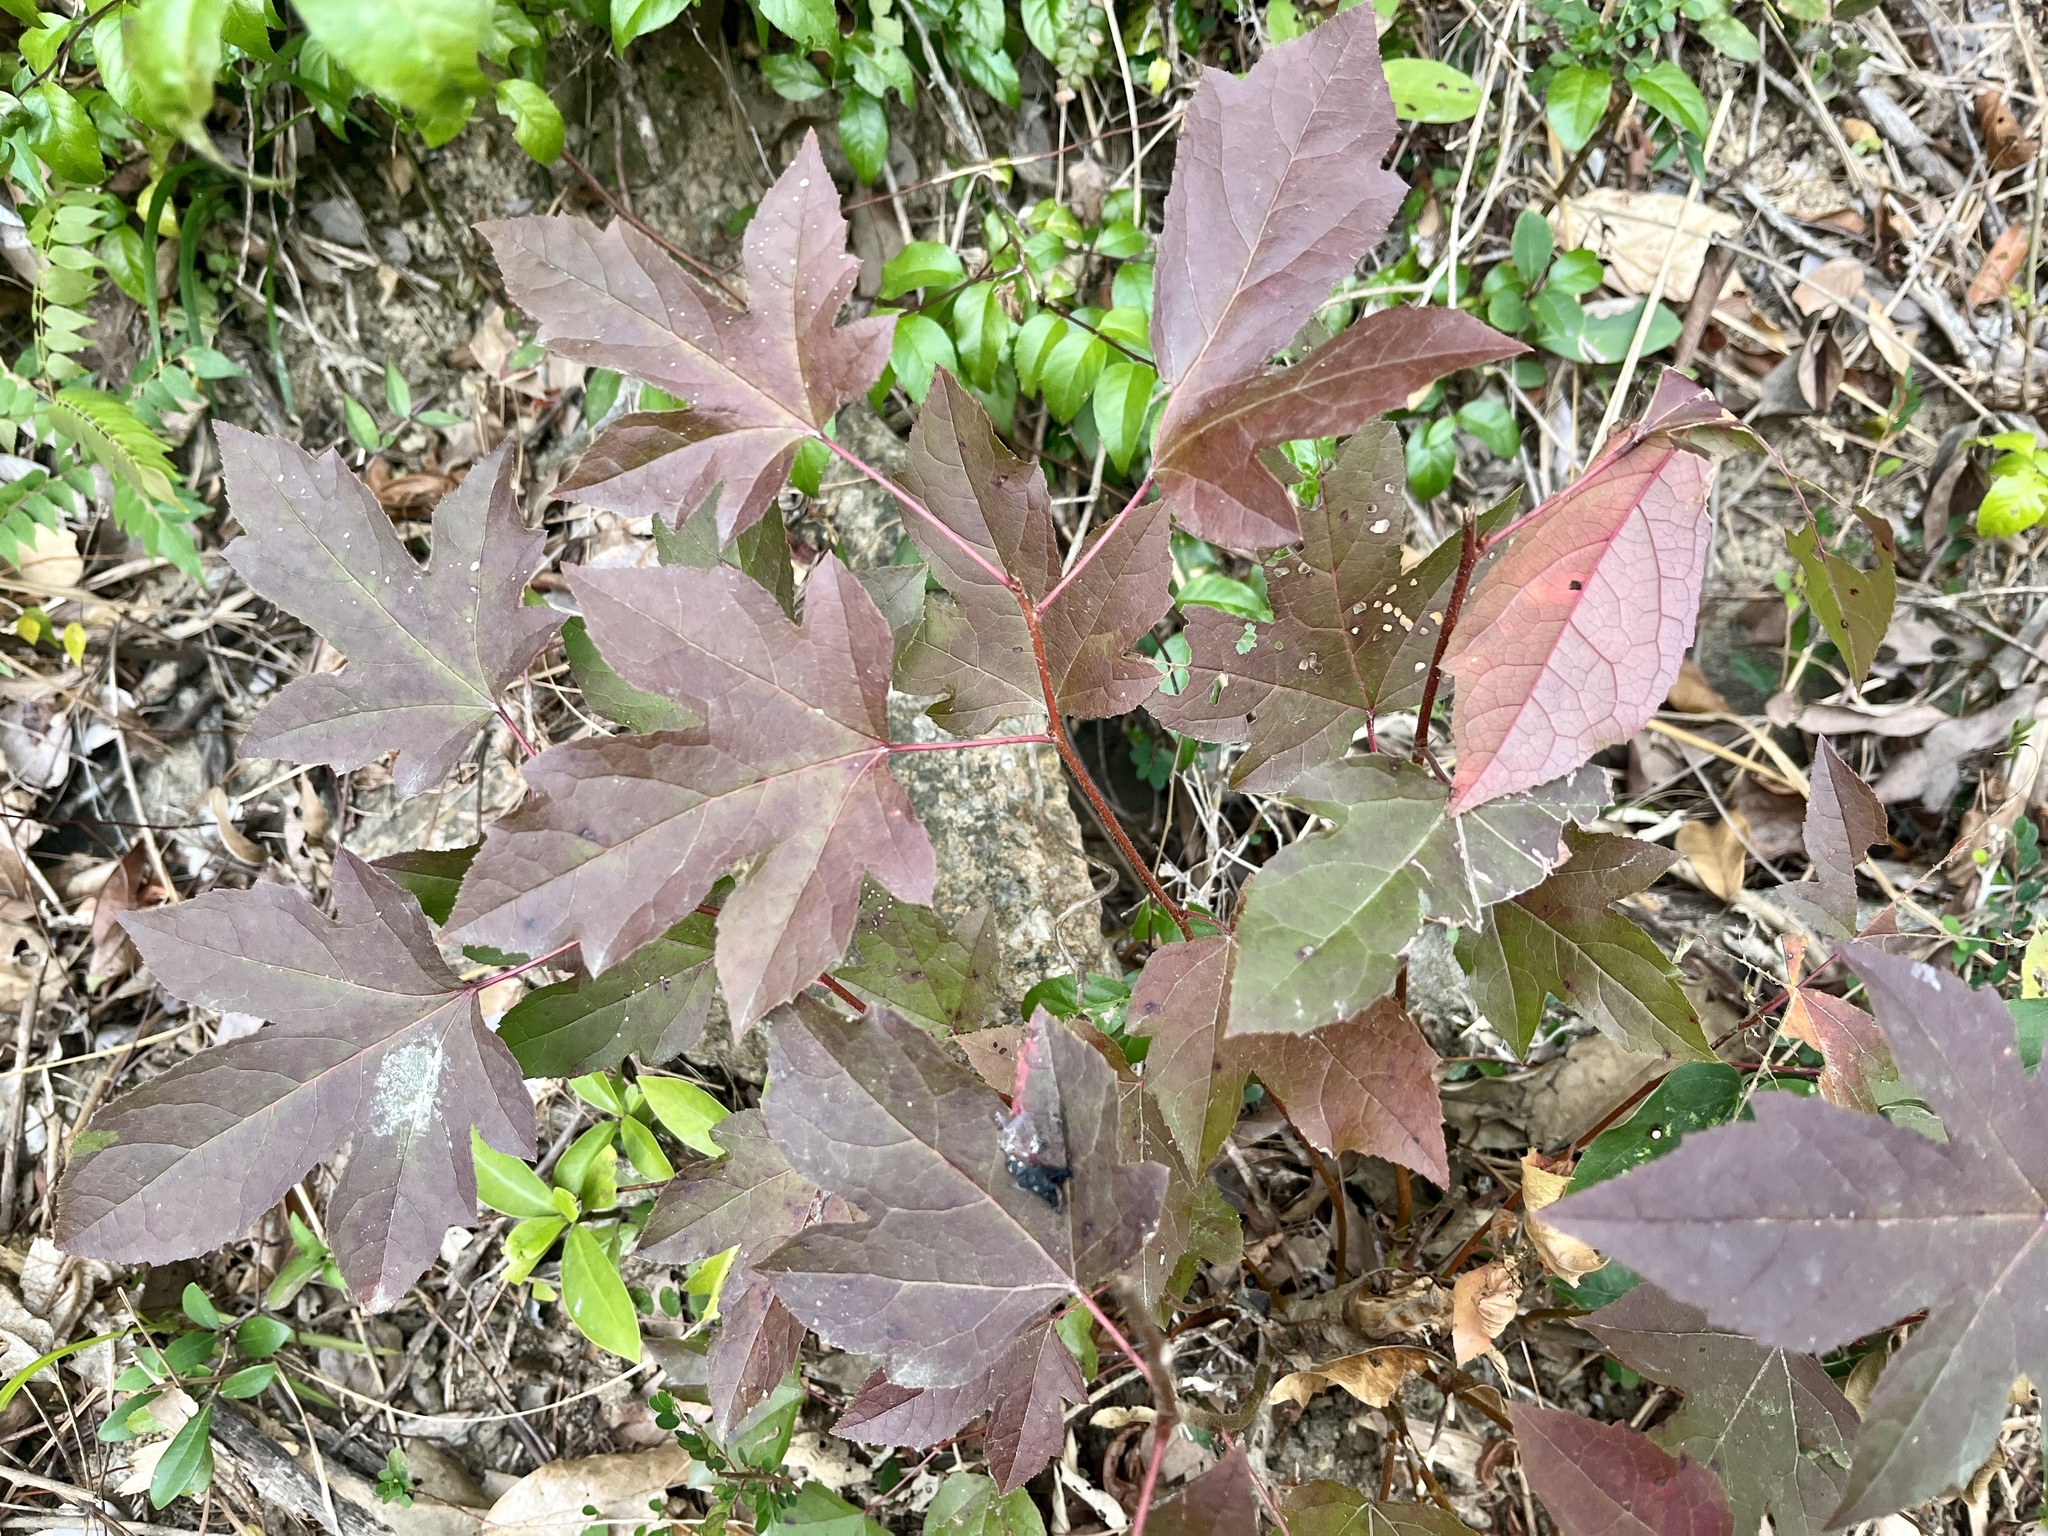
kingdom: Plantae
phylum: Tracheophyta
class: Magnoliopsida
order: Saxifragales
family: Altingiaceae
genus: Liquidambar
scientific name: Liquidambar formosana
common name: Chinese sweet gum
